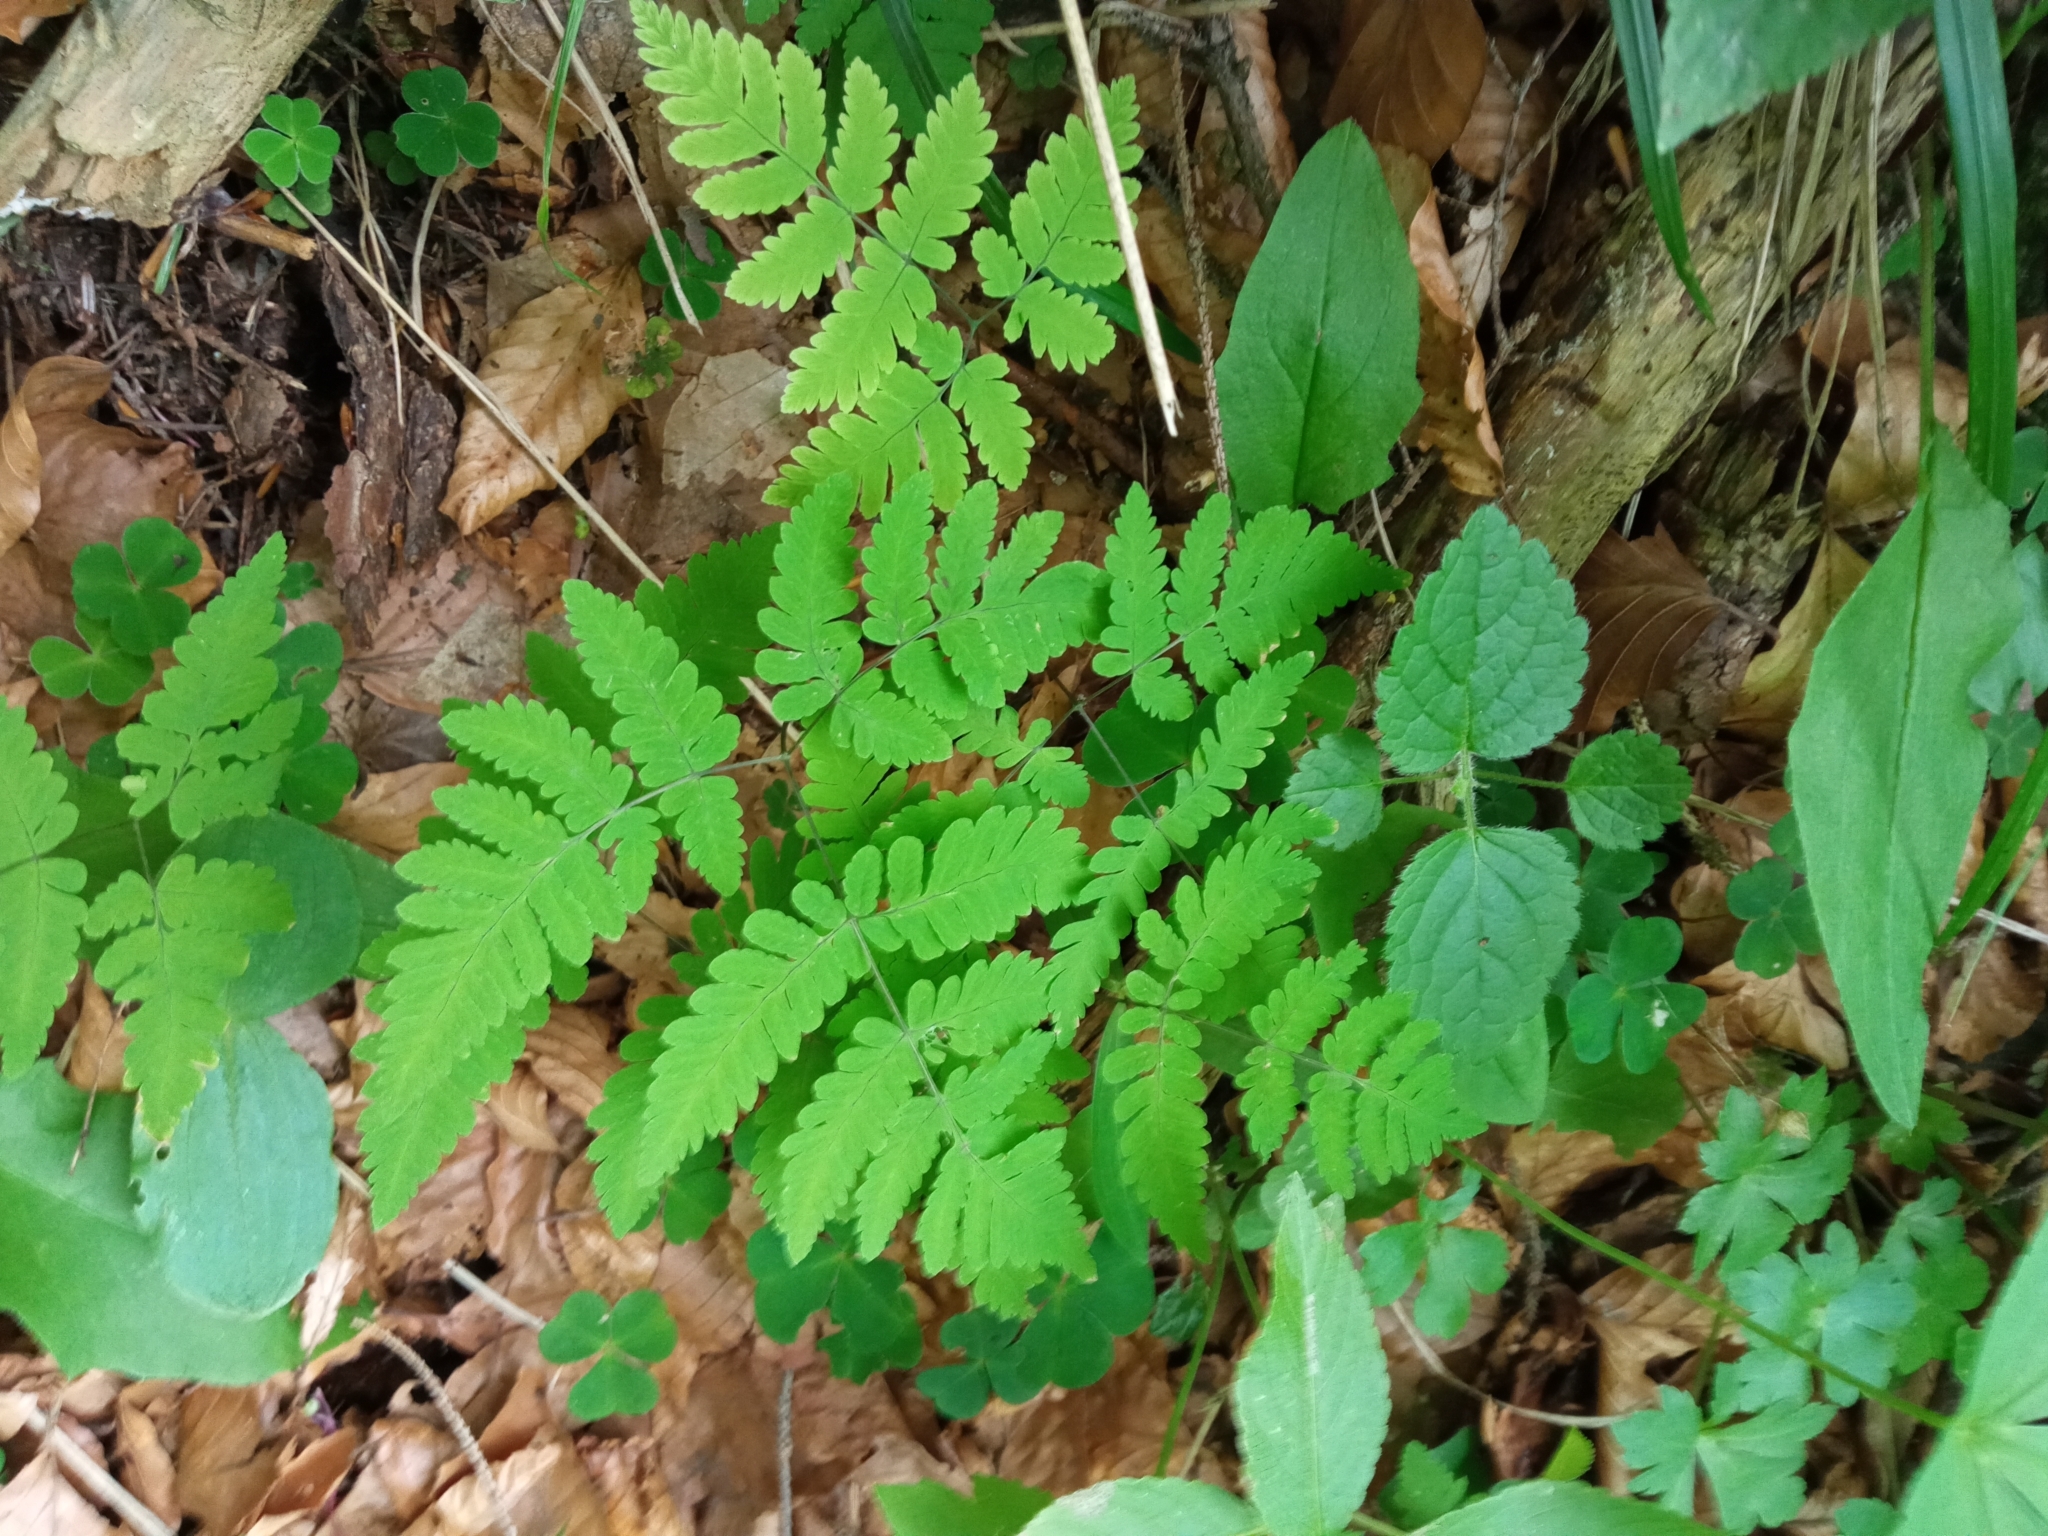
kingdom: Plantae
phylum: Tracheophyta
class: Polypodiopsida
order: Polypodiales
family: Cystopteridaceae
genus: Gymnocarpium
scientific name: Gymnocarpium dryopteris
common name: Oak fern
